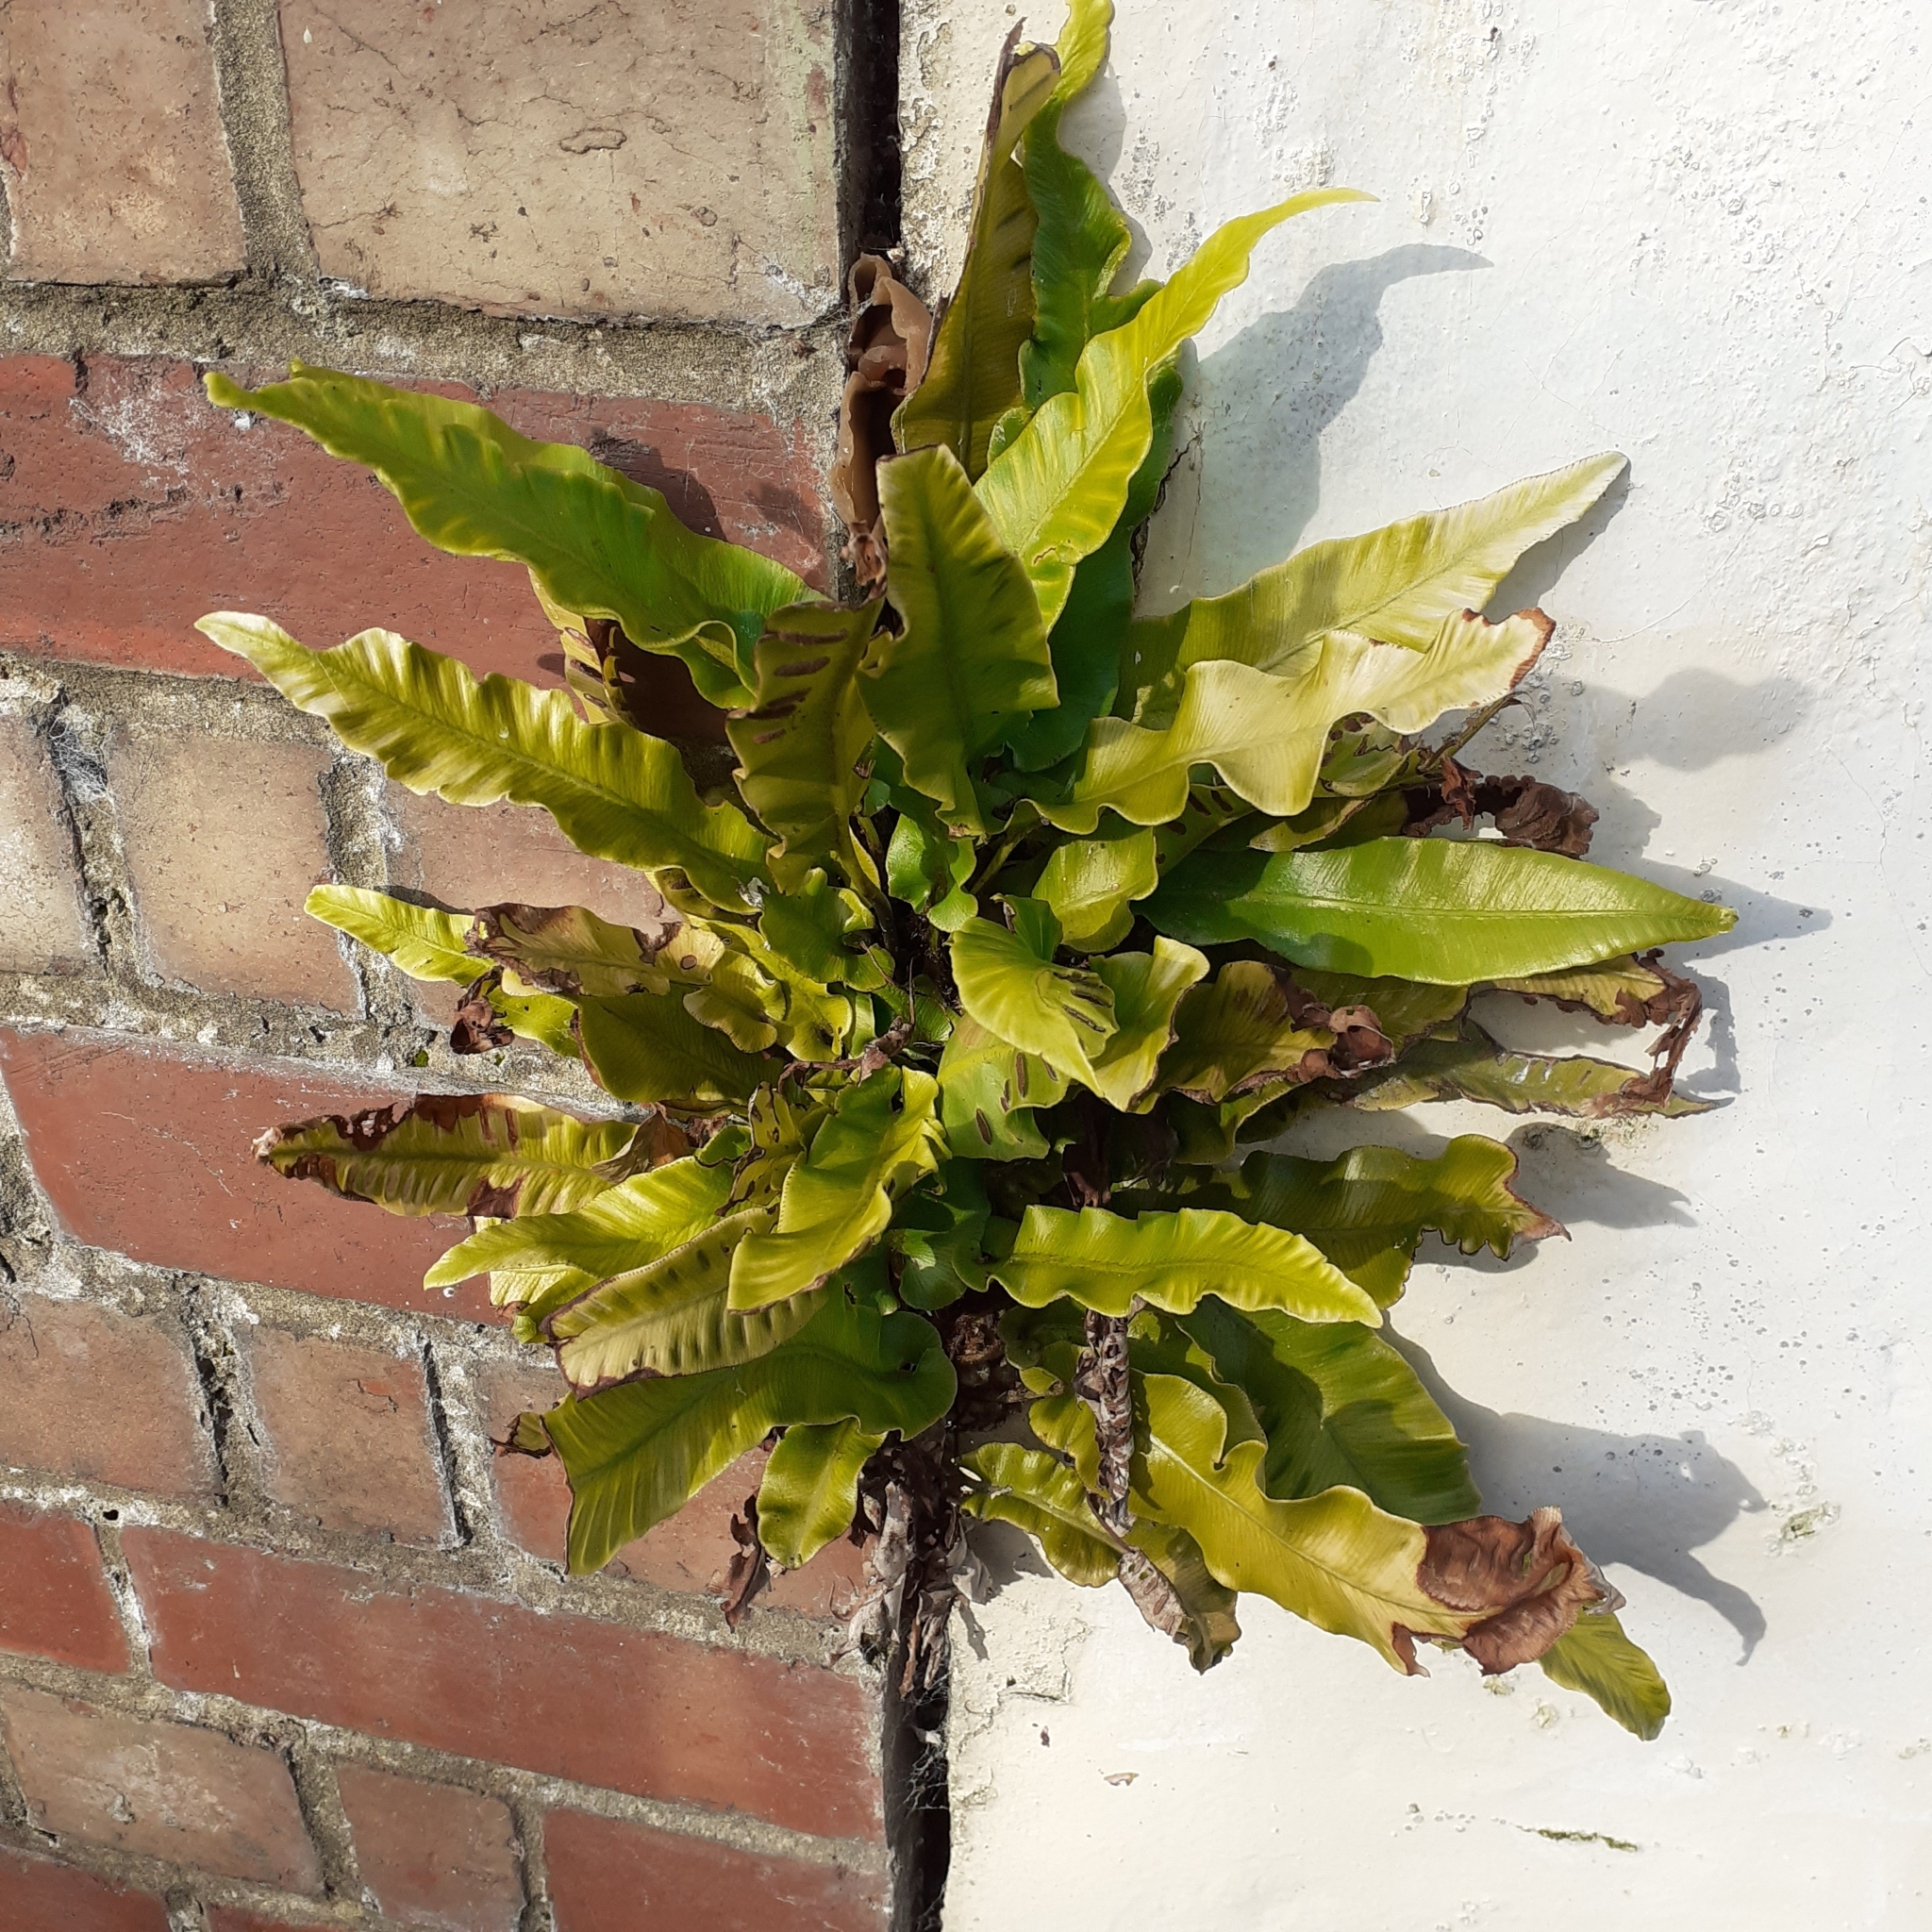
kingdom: Plantae
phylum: Tracheophyta
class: Polypodiopsida
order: Polypodiales
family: Aspleniaceae
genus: Asplenium
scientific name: Asplenium scolopendrium
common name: Hart's-tongue fern
